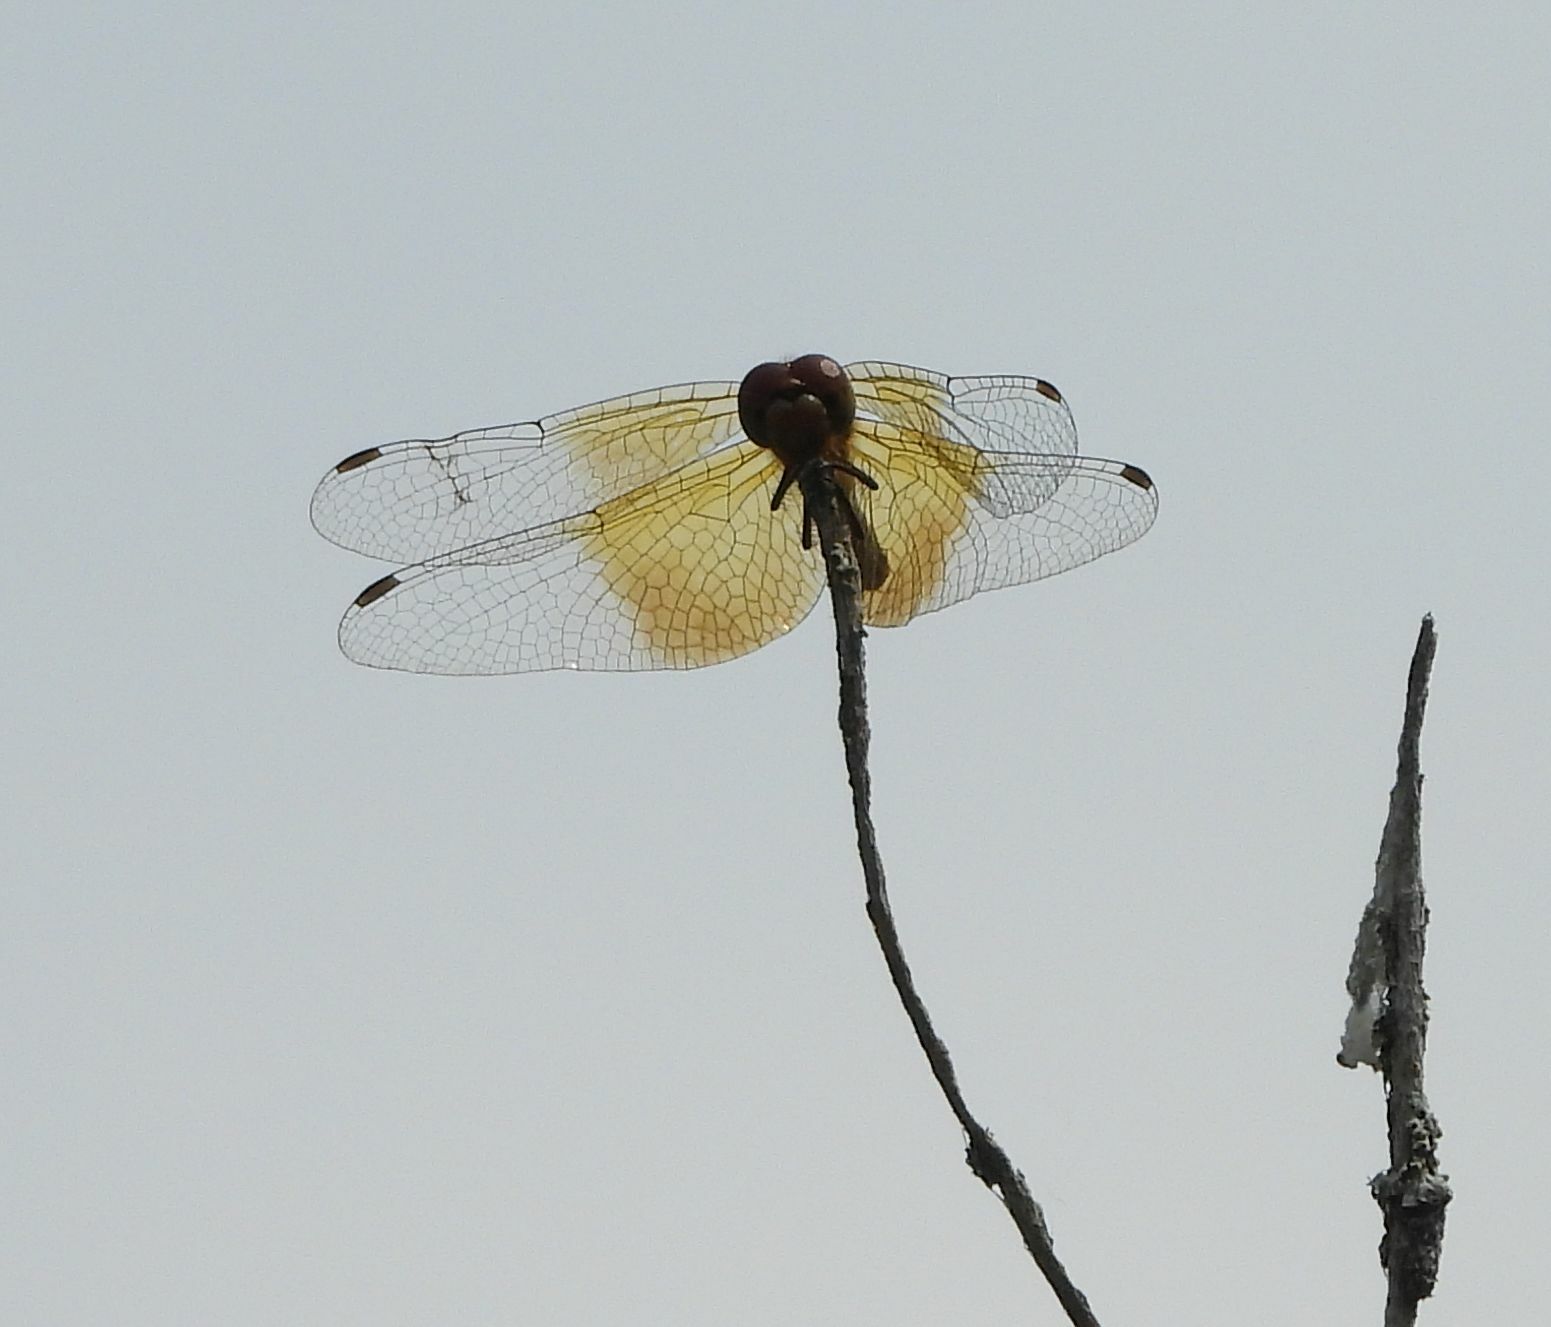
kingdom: Animalia
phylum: Arthropoda
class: Insecta
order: Odonata
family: Libellulidae
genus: Sympetrum
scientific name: Sympetrum semicinctum
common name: Band-winged meadowhawk
